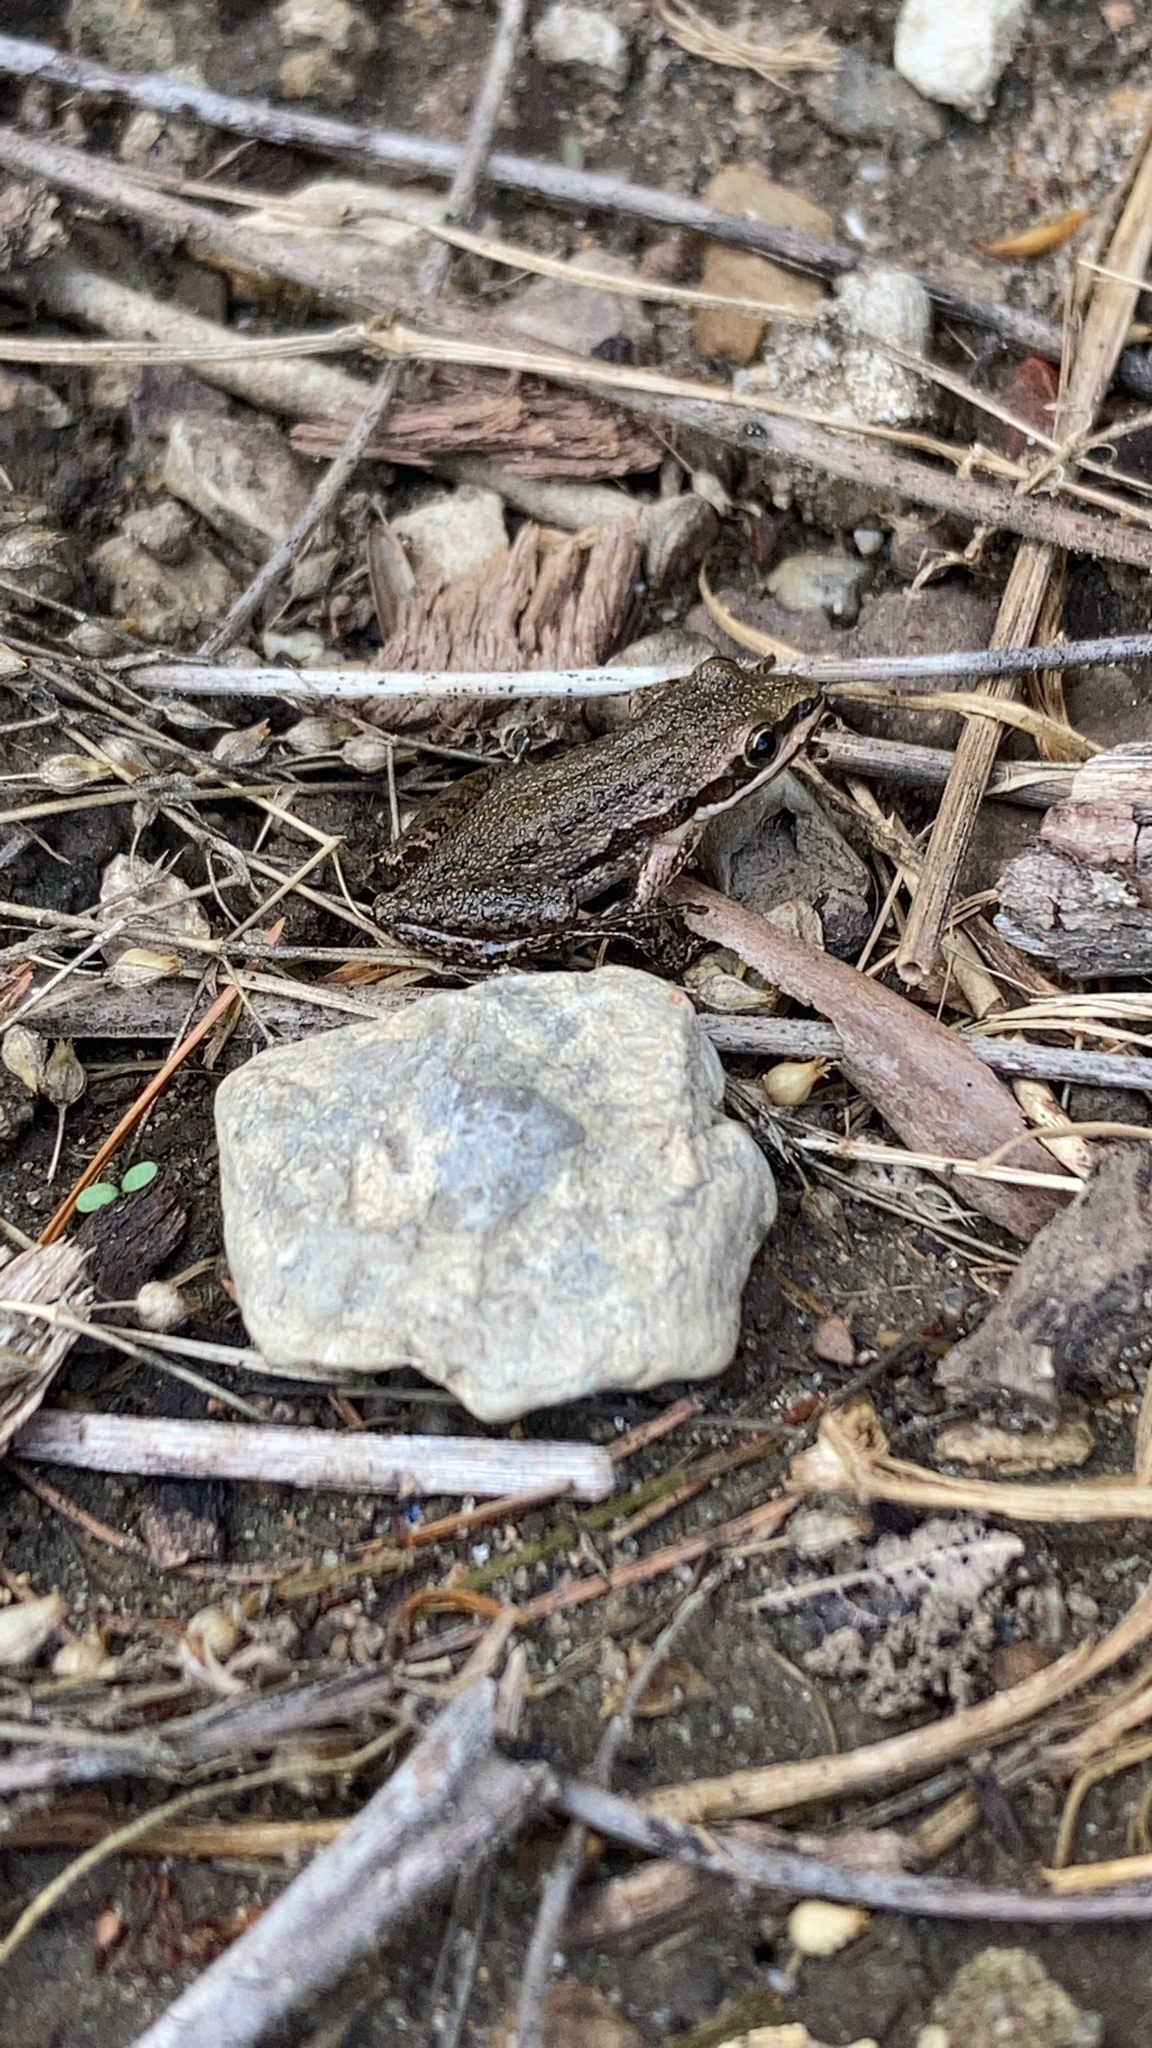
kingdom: Animalia
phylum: Chordata
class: Amphibia
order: Anura
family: Hylidae
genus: Pseudacris
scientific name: Pseudacris maculata
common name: Boreal chorus frog
